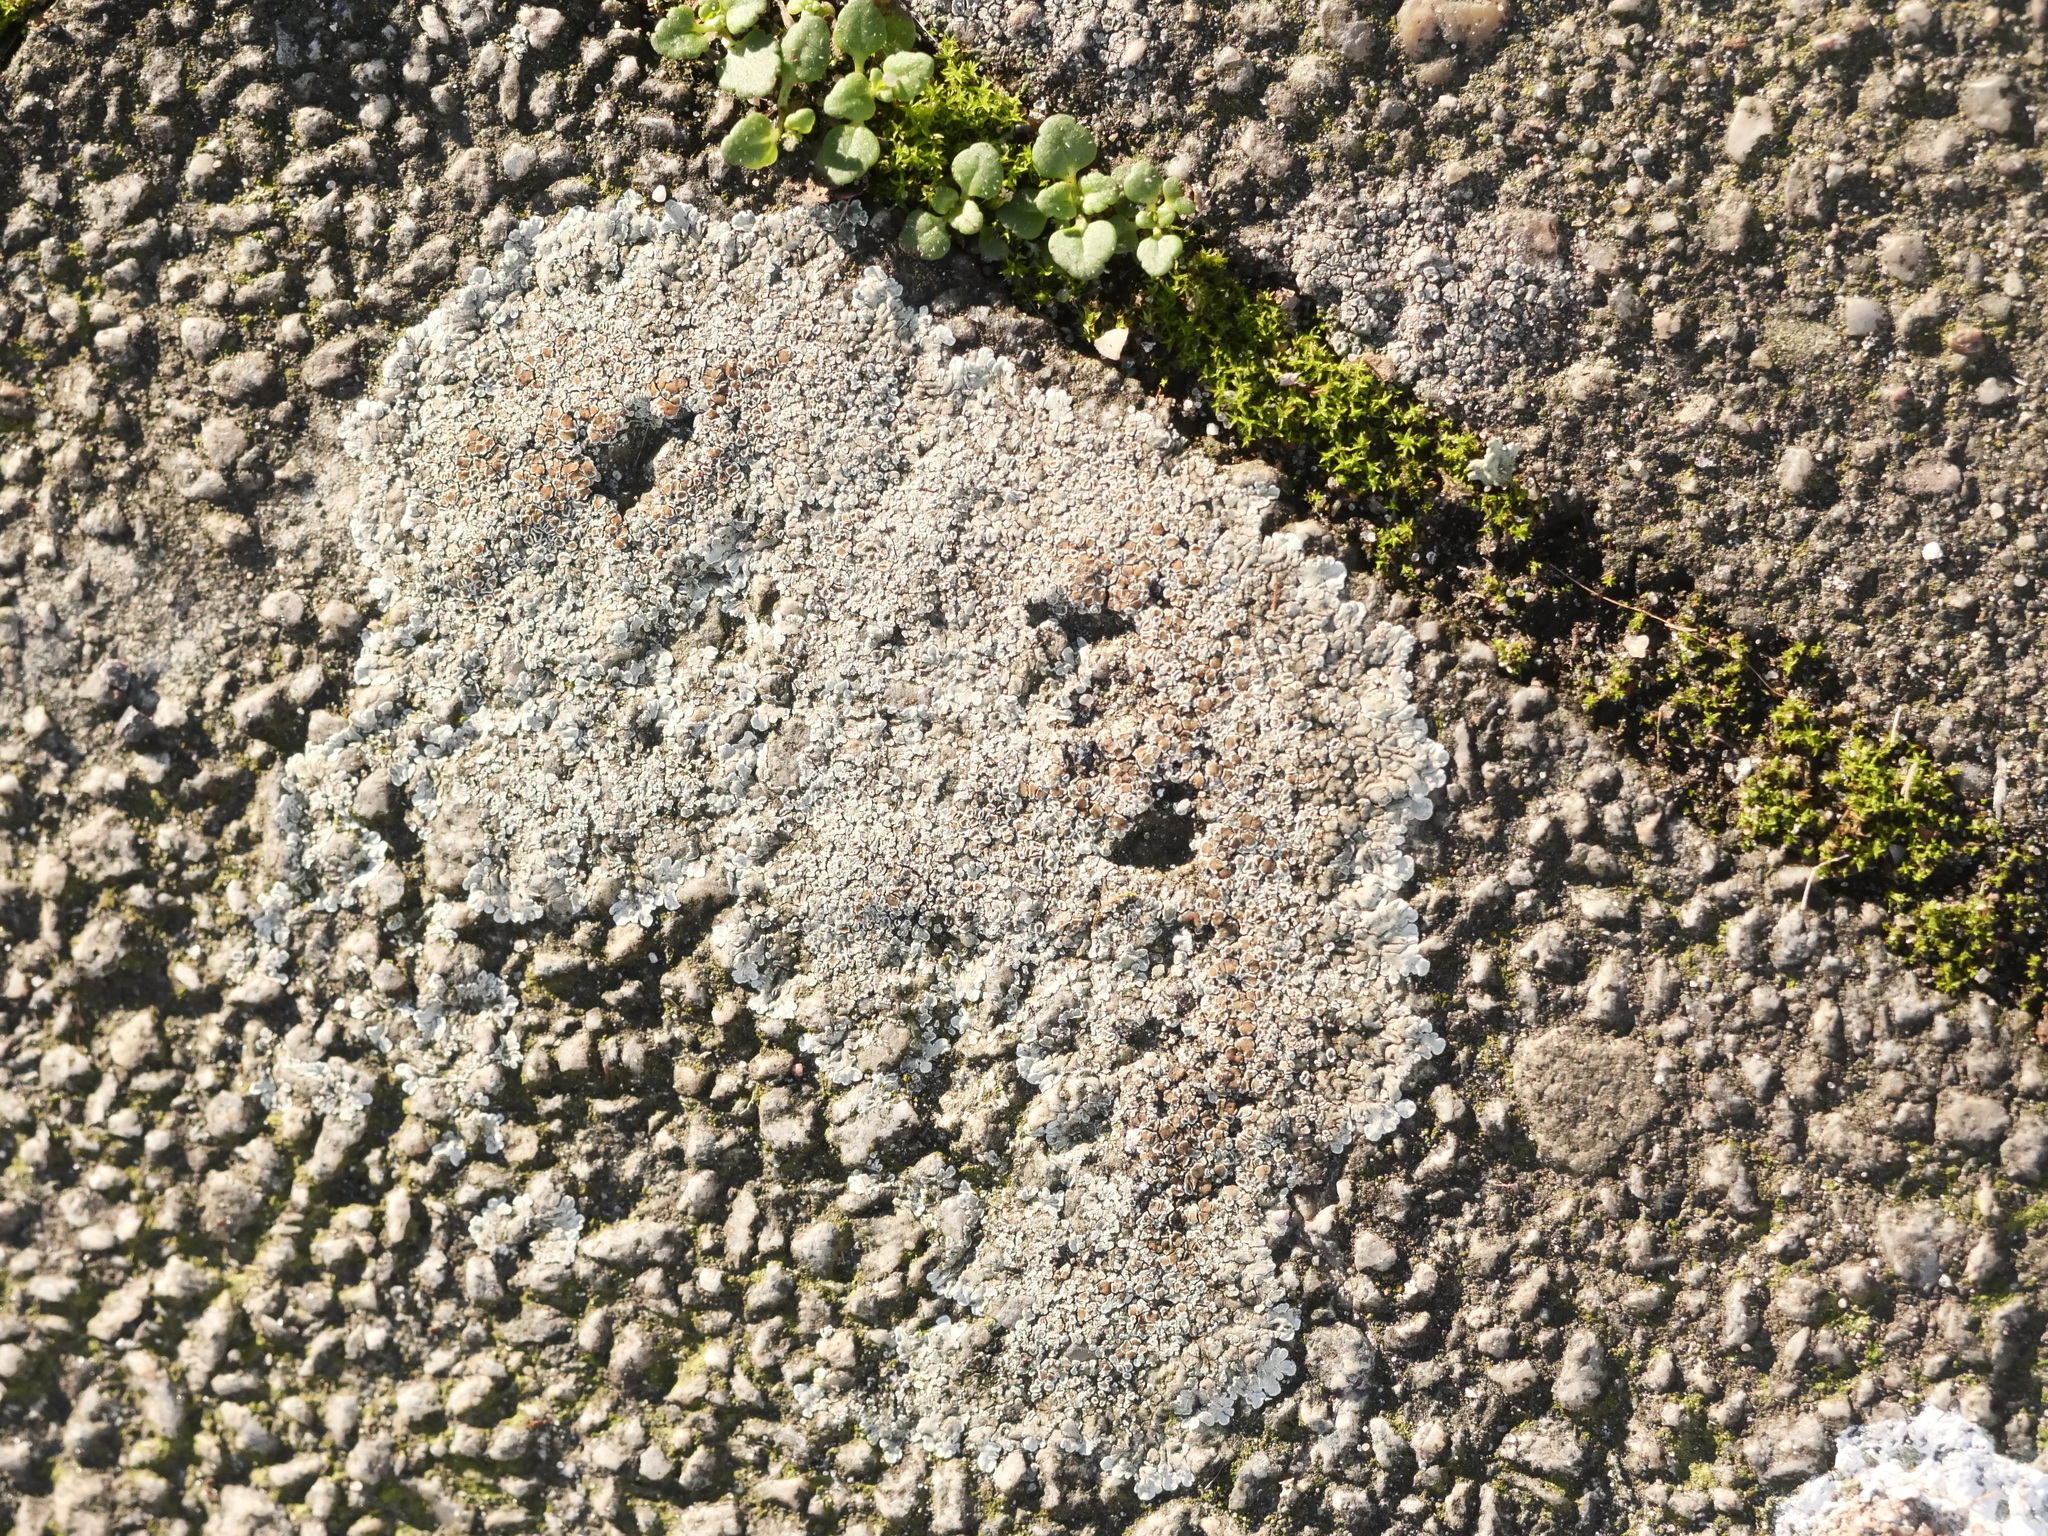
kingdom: Fungi
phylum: Ascomycota
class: Lecanoromycetes
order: Lecanorales
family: Lecanoraceae
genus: Protoparmeliopsis
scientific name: Protoparmeliopsis muralis
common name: Stonewall rim lichen
